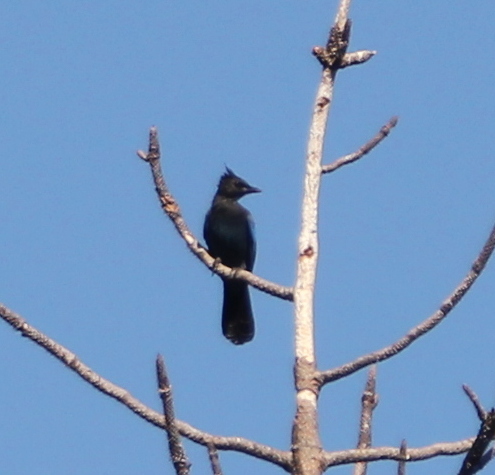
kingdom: Animalia
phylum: Chordata
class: Aves
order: Passeriformes
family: Corvidae
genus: Cyanocitta
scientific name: Cyanocitta stelleri
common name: Steller's jay
